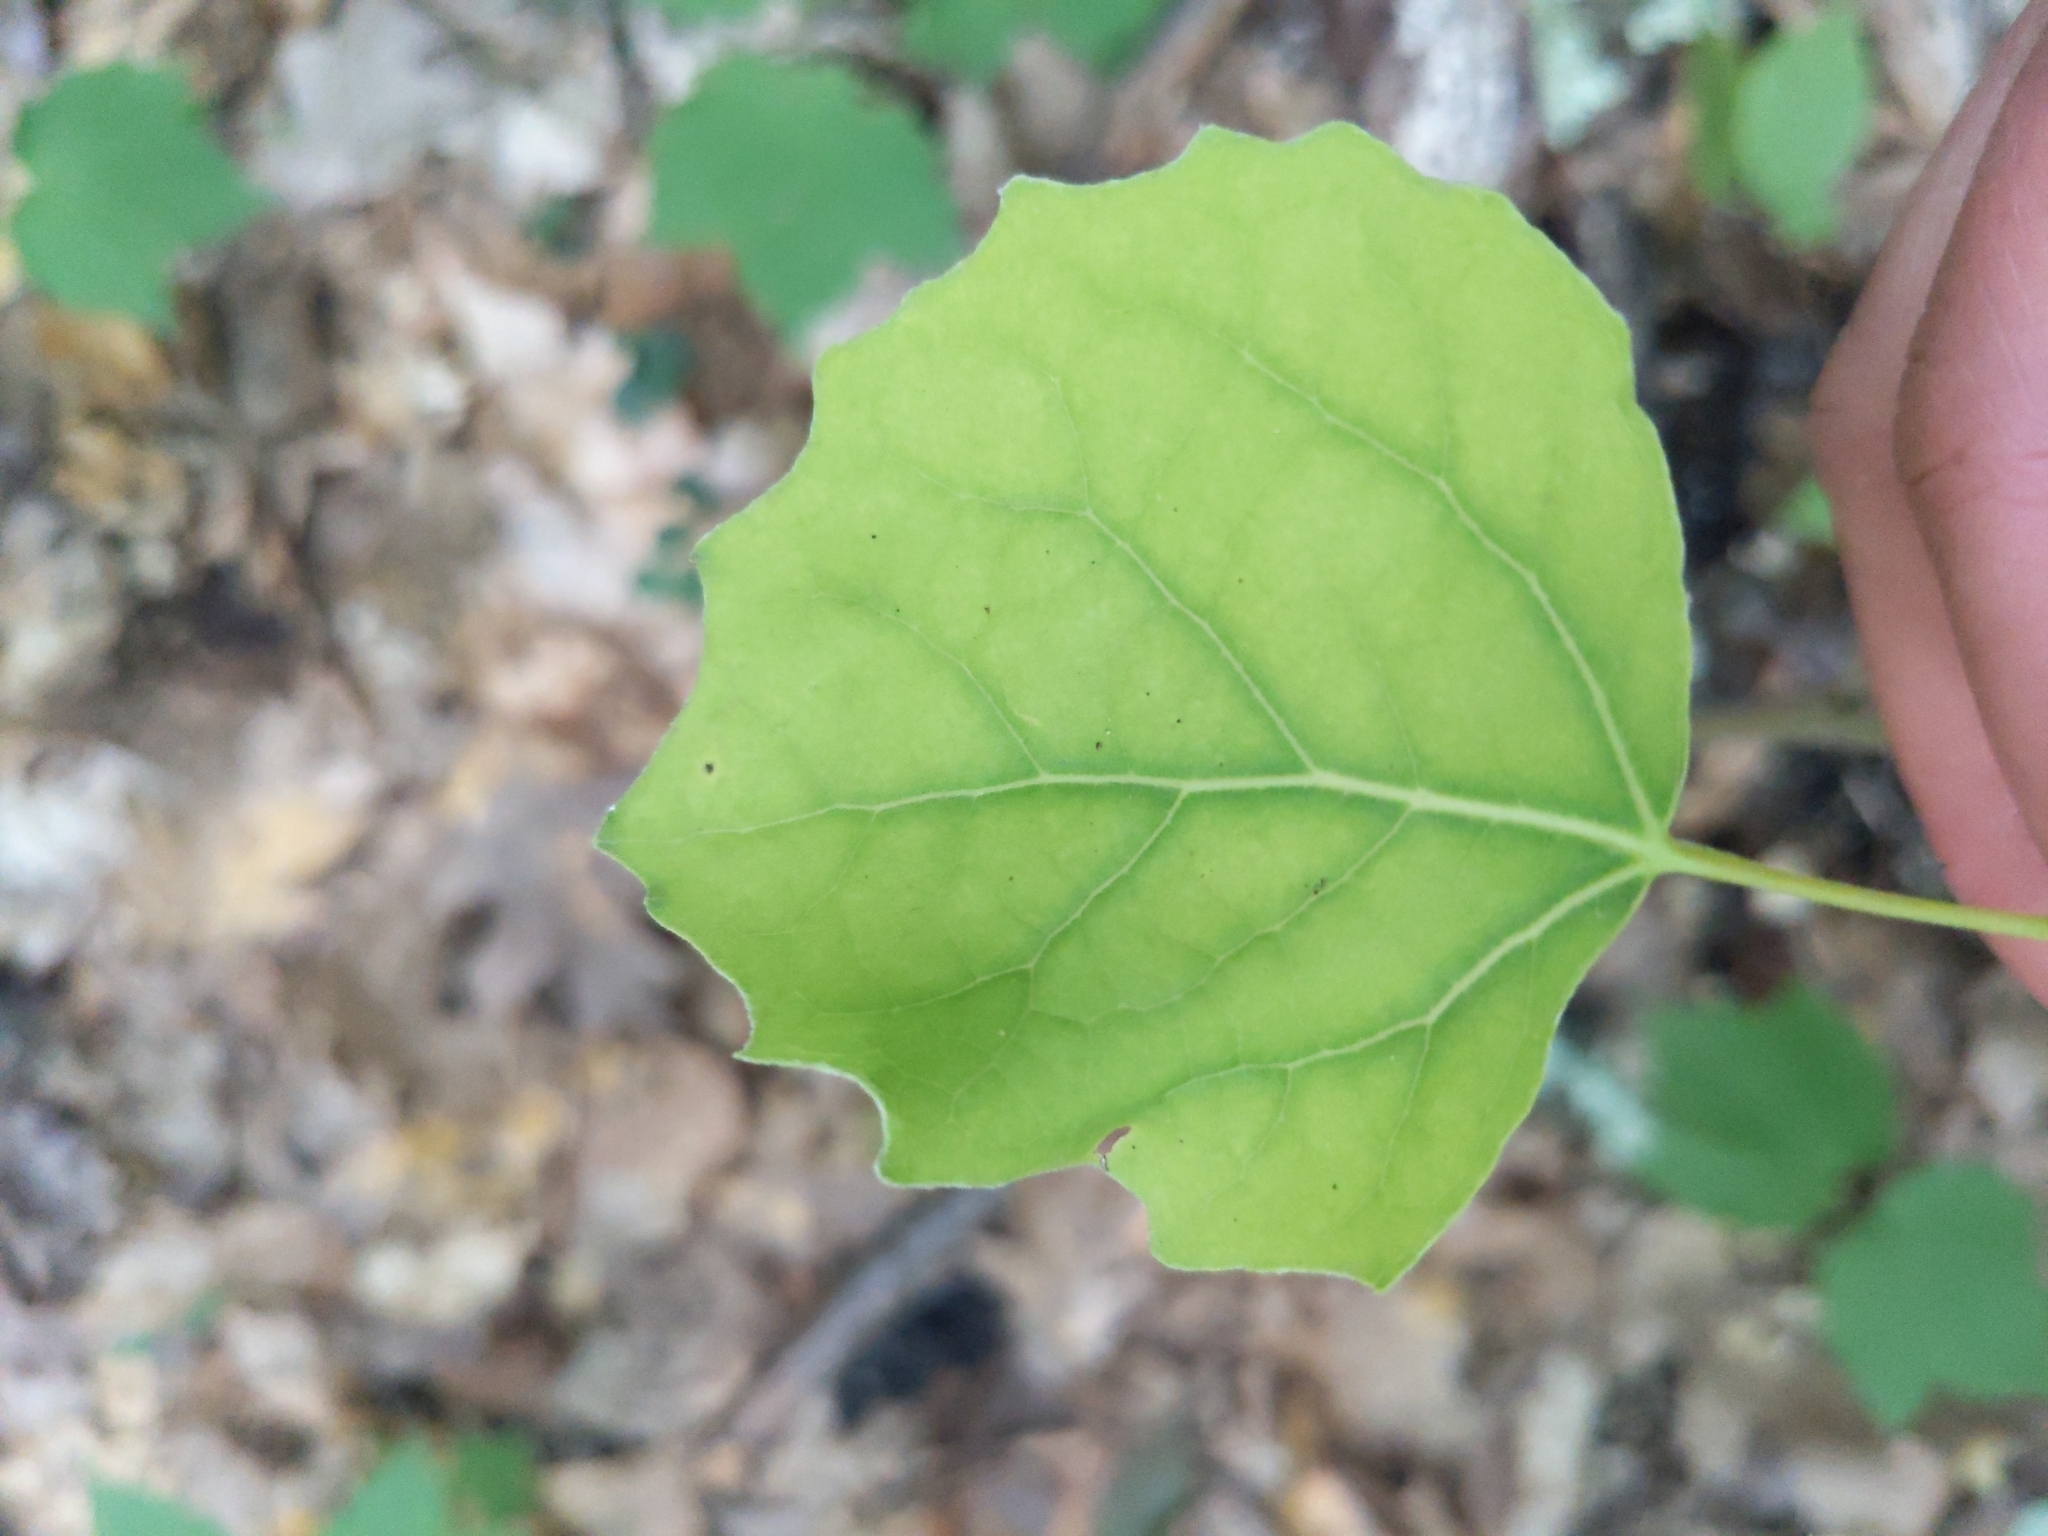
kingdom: Plantae
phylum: Tracheophyta
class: Magnoliopsida
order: Malpighiales
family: Salicaceae
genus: Populus
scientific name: Populus grandidentata
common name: Bigtooth aspen
